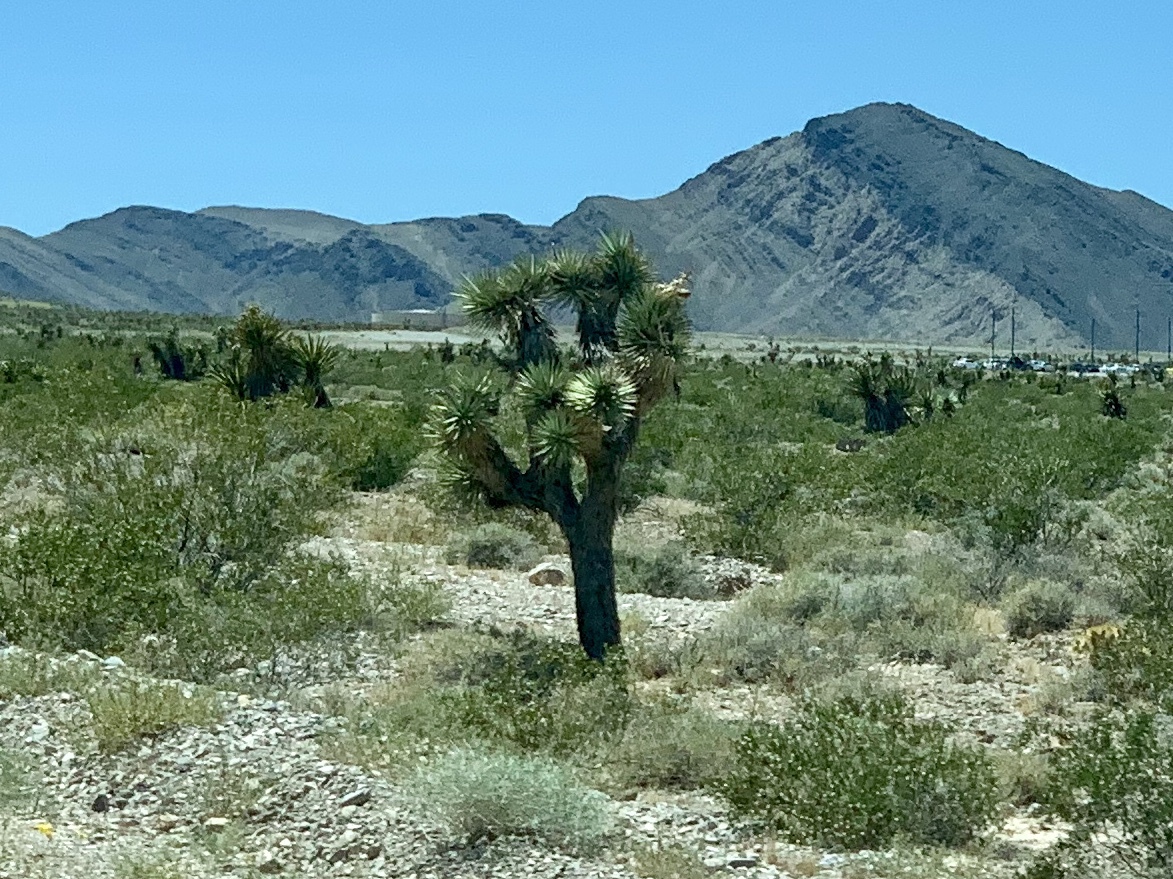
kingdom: Plantae
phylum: Tracheophyta
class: Liliopsida
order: Asparagales
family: Asparagaceae
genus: Yucca
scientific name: Yucca brevifolia
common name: Joshua tree
